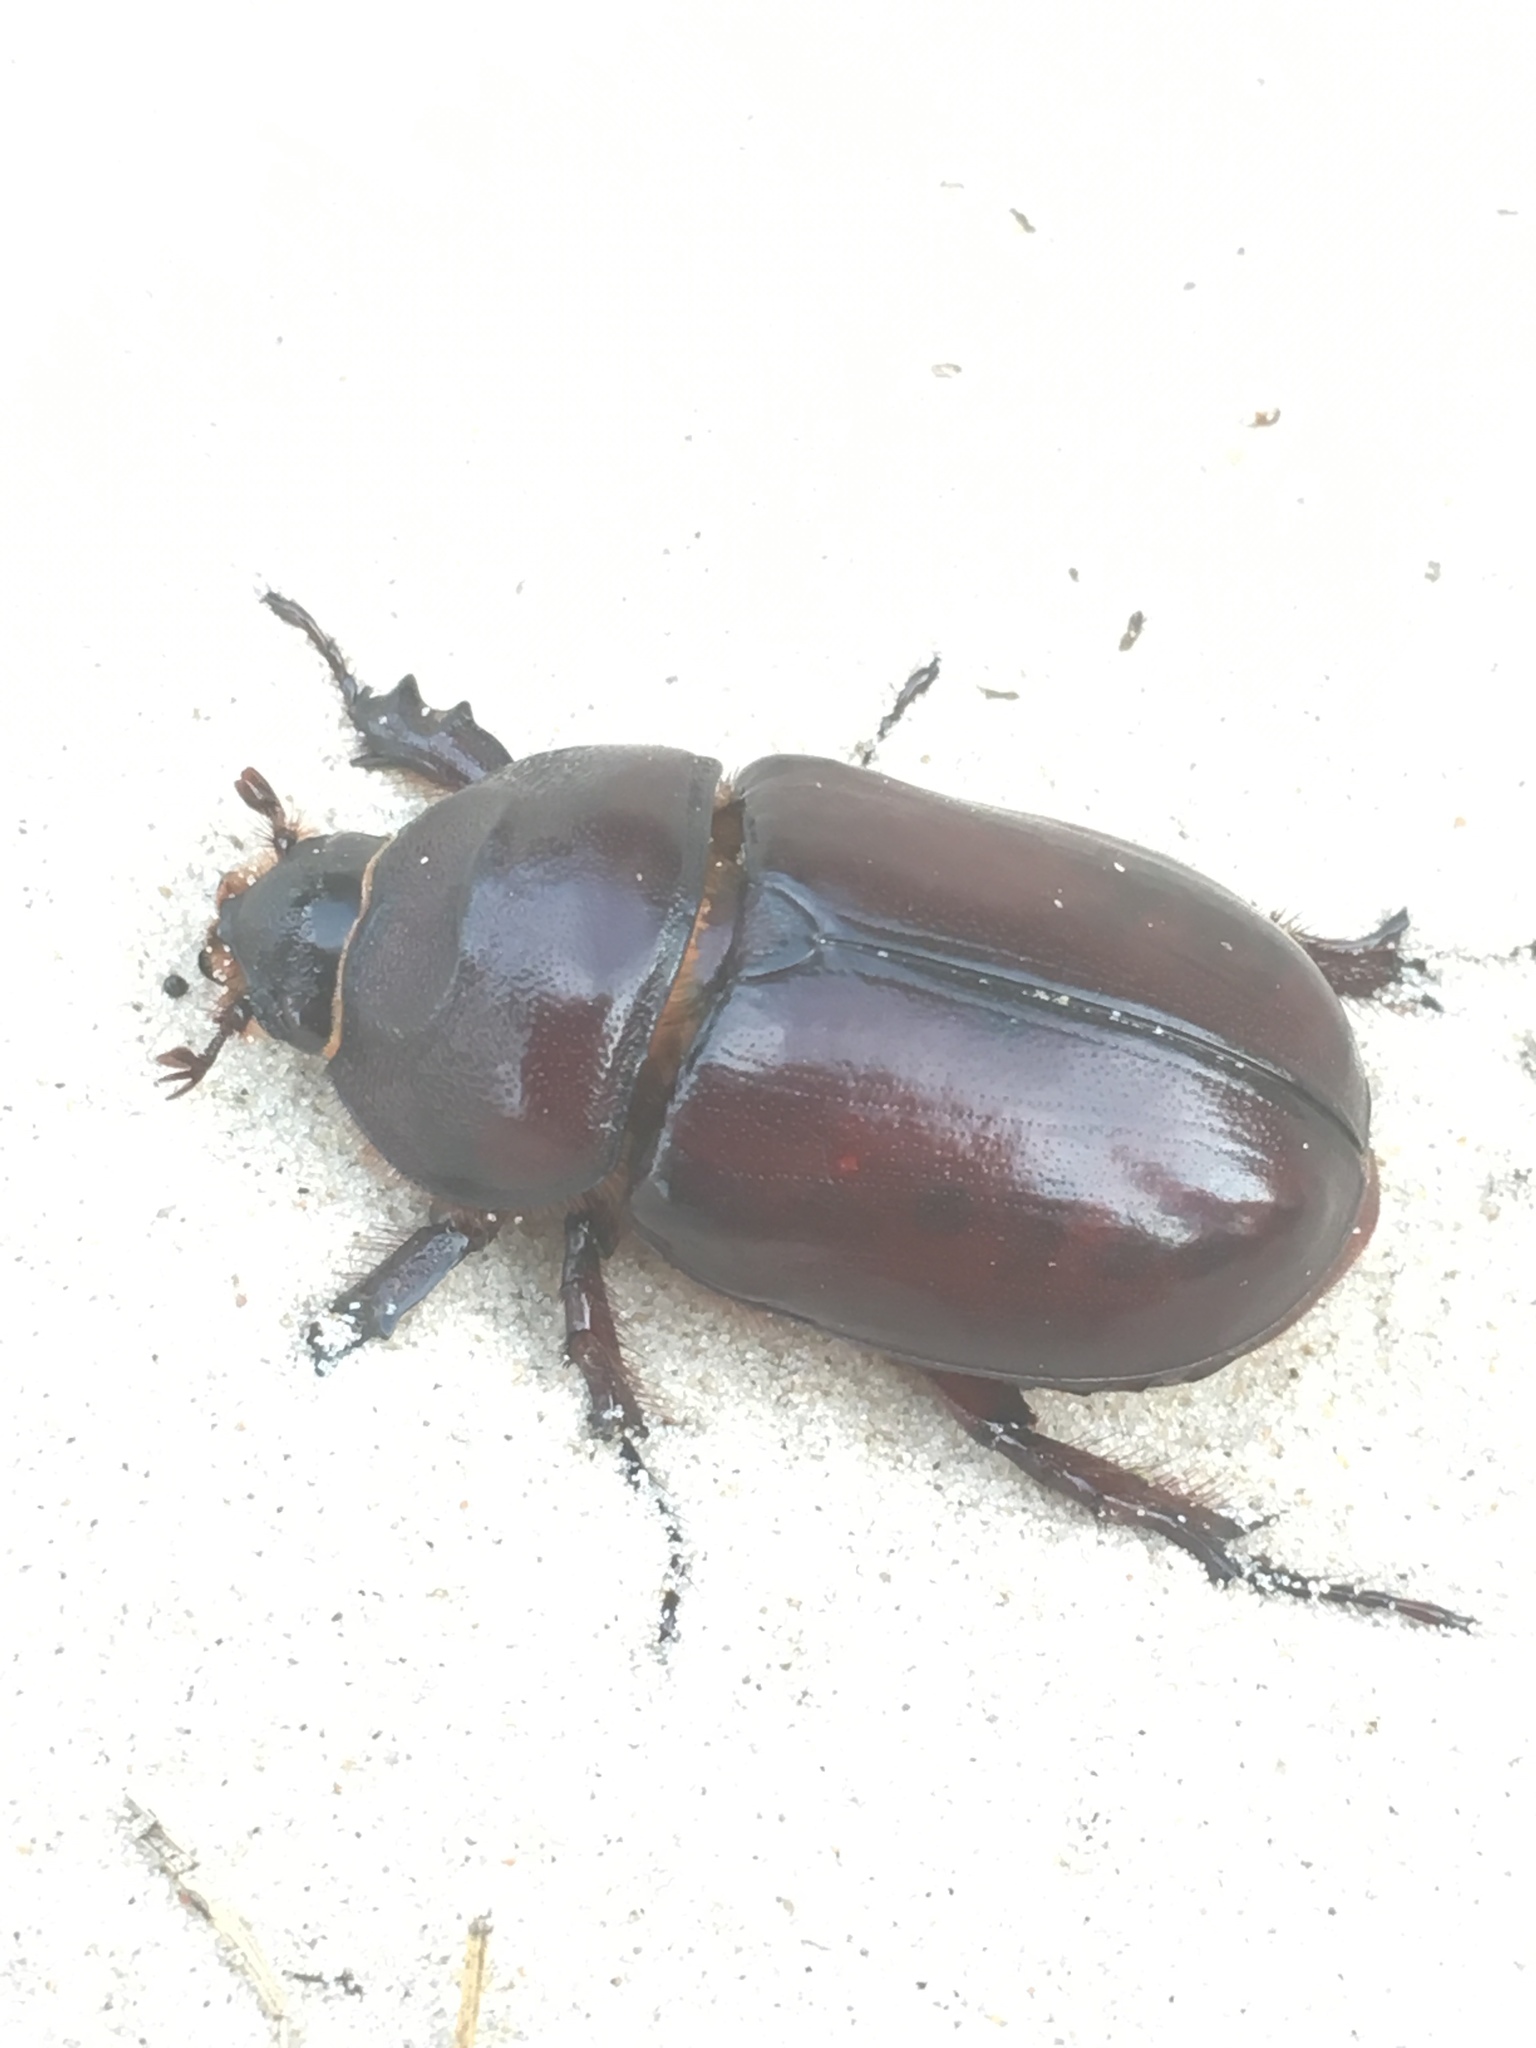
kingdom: Animalia
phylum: Arthropoda
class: Insecta
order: Coleoptera
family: Scarabaeidae
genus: Oryctes
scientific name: Oryctes nasicornis
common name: European rhinoceros beetle
